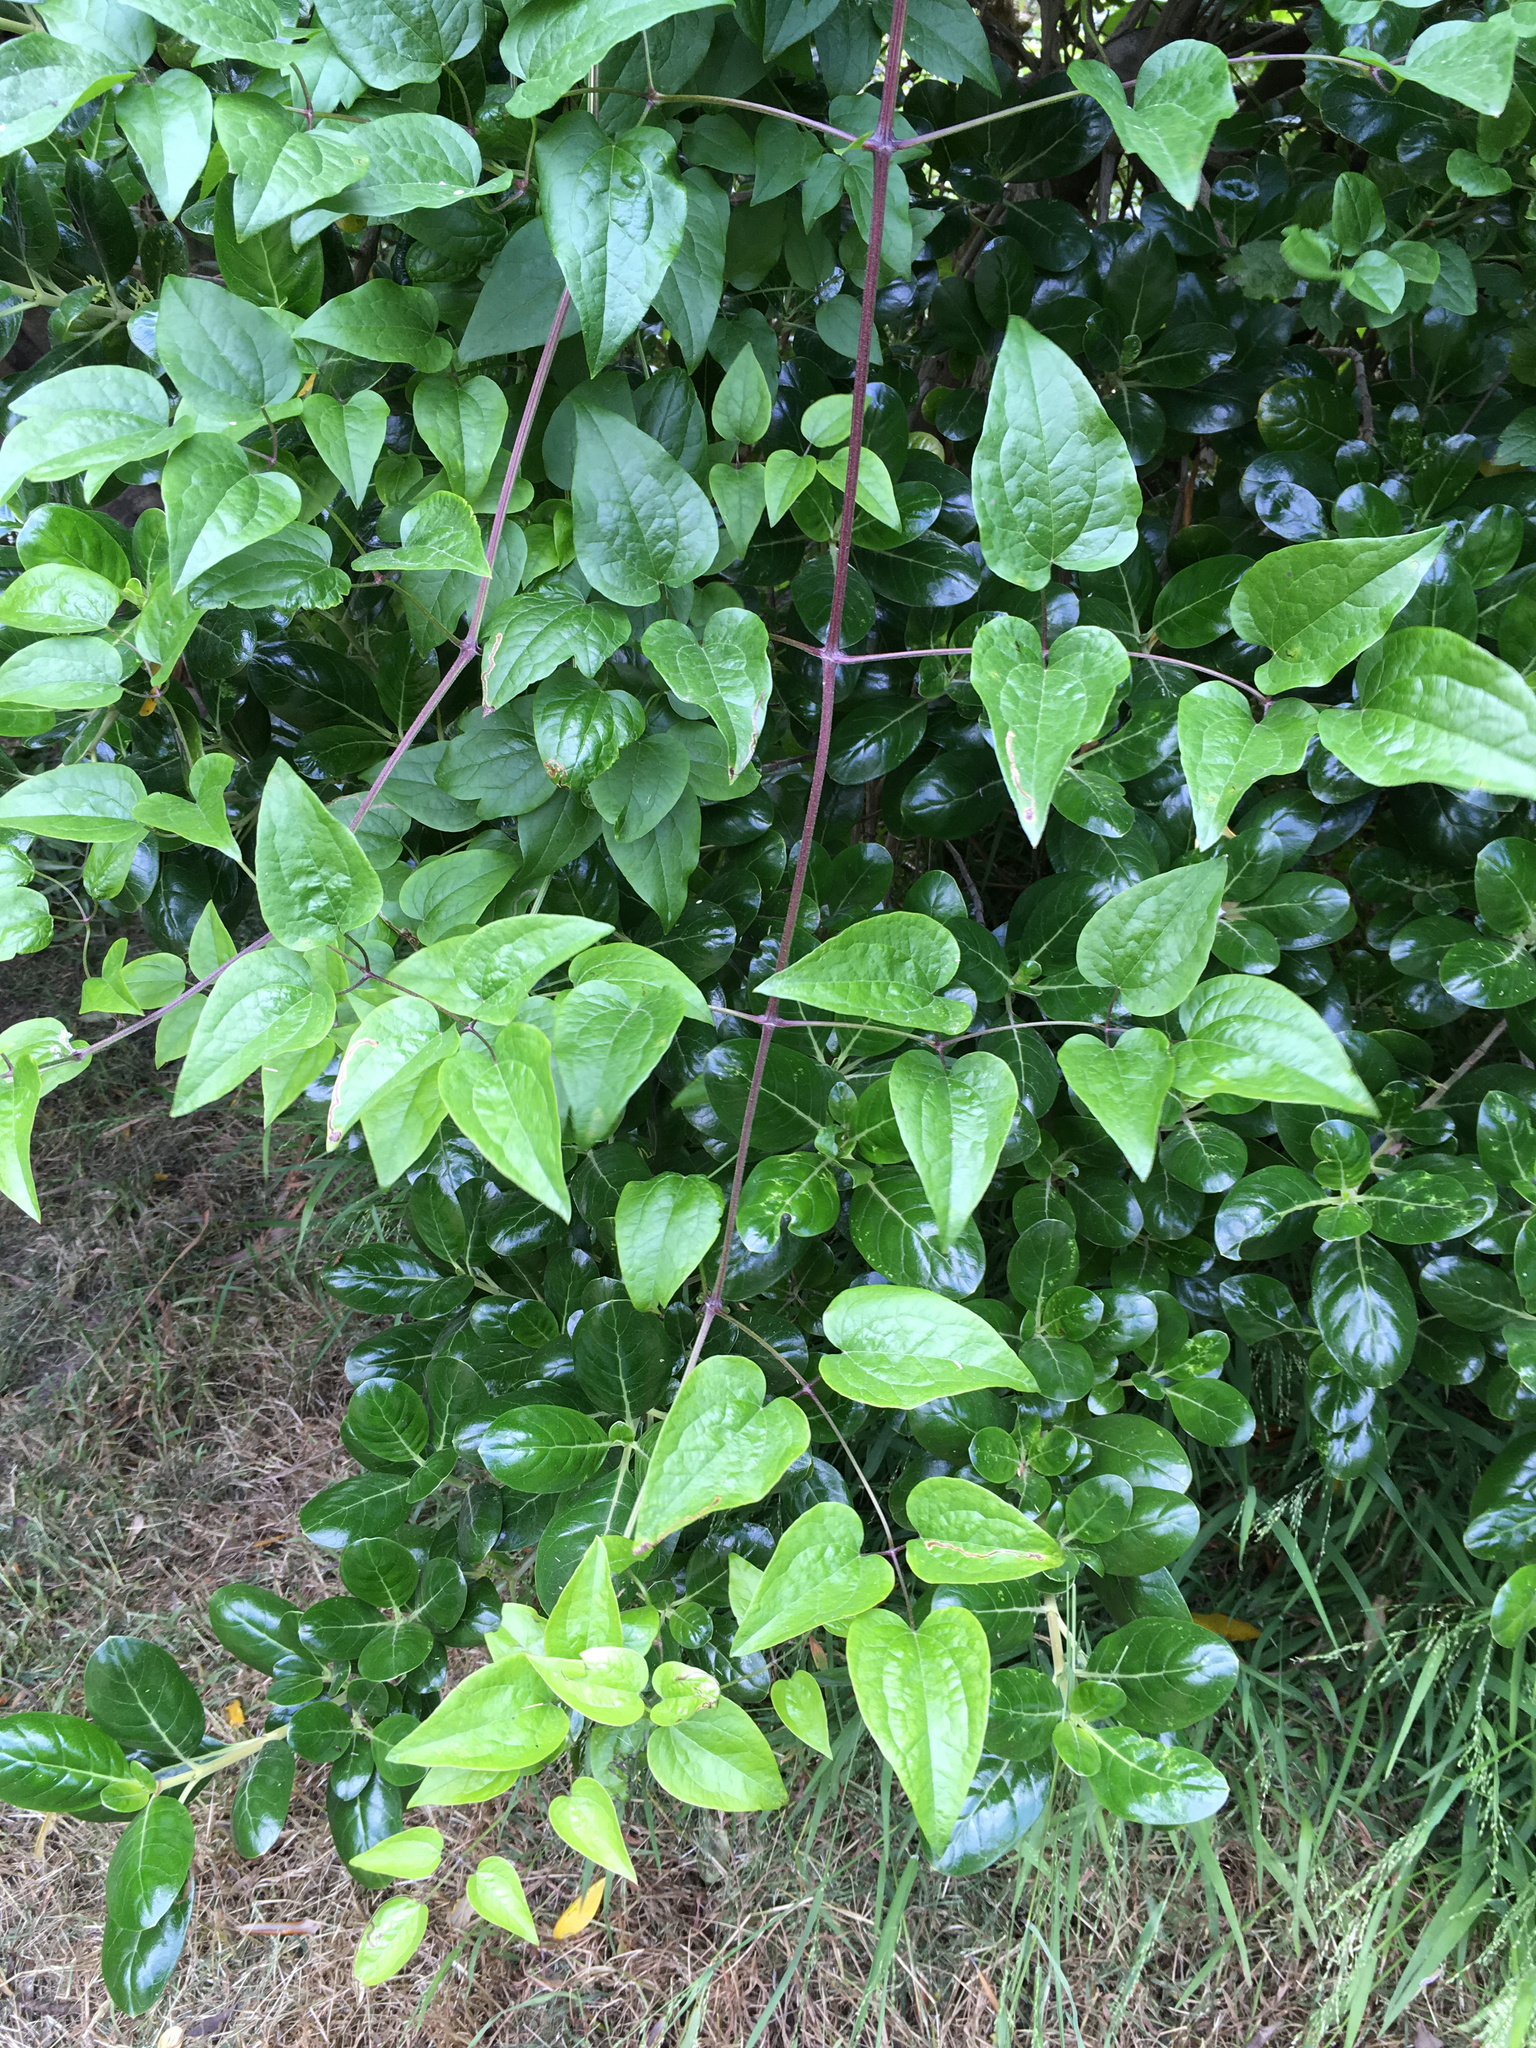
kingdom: Plantae
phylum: Tracheophyta
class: Magnoliopsida
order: Ranunculales
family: Ranunculaceae
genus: Clematis
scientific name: Clematis vitalba
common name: Evergreen clematis
